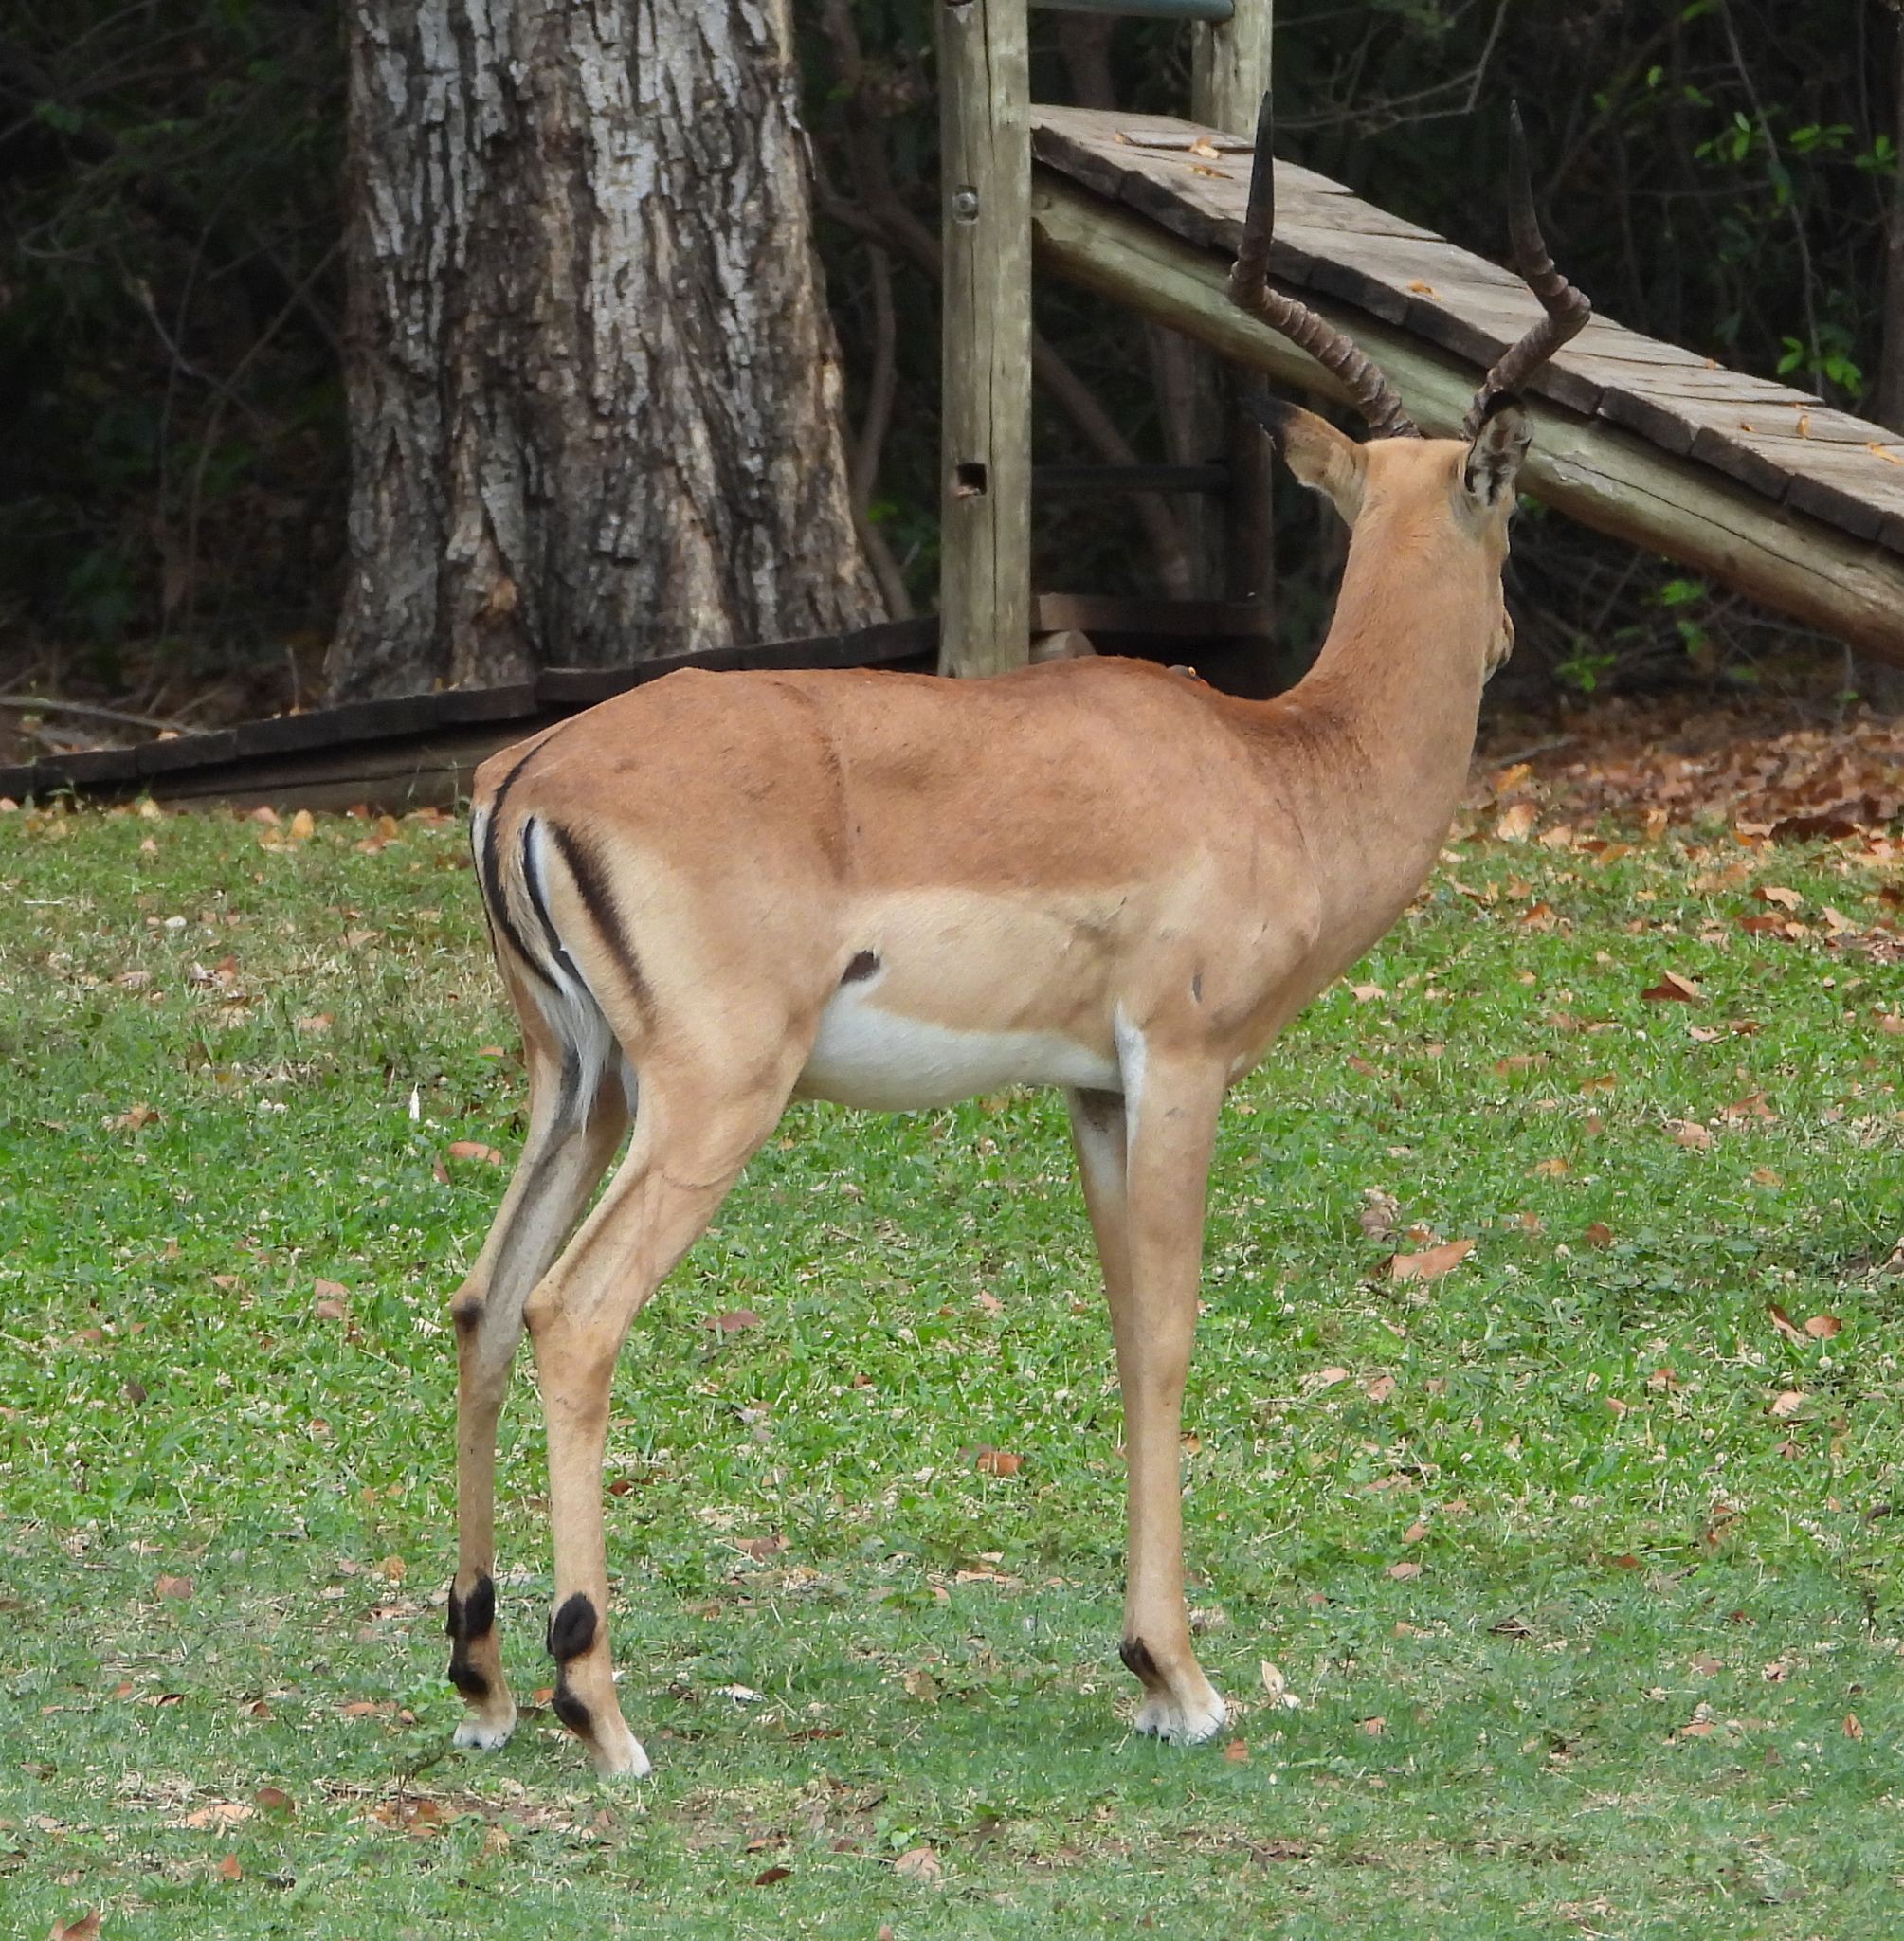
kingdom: Animalia
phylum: Chordata
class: Mammalia
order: Artiodactyla
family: Bovidae
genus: Aepyceros
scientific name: Aepyceros melampus
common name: Impala
